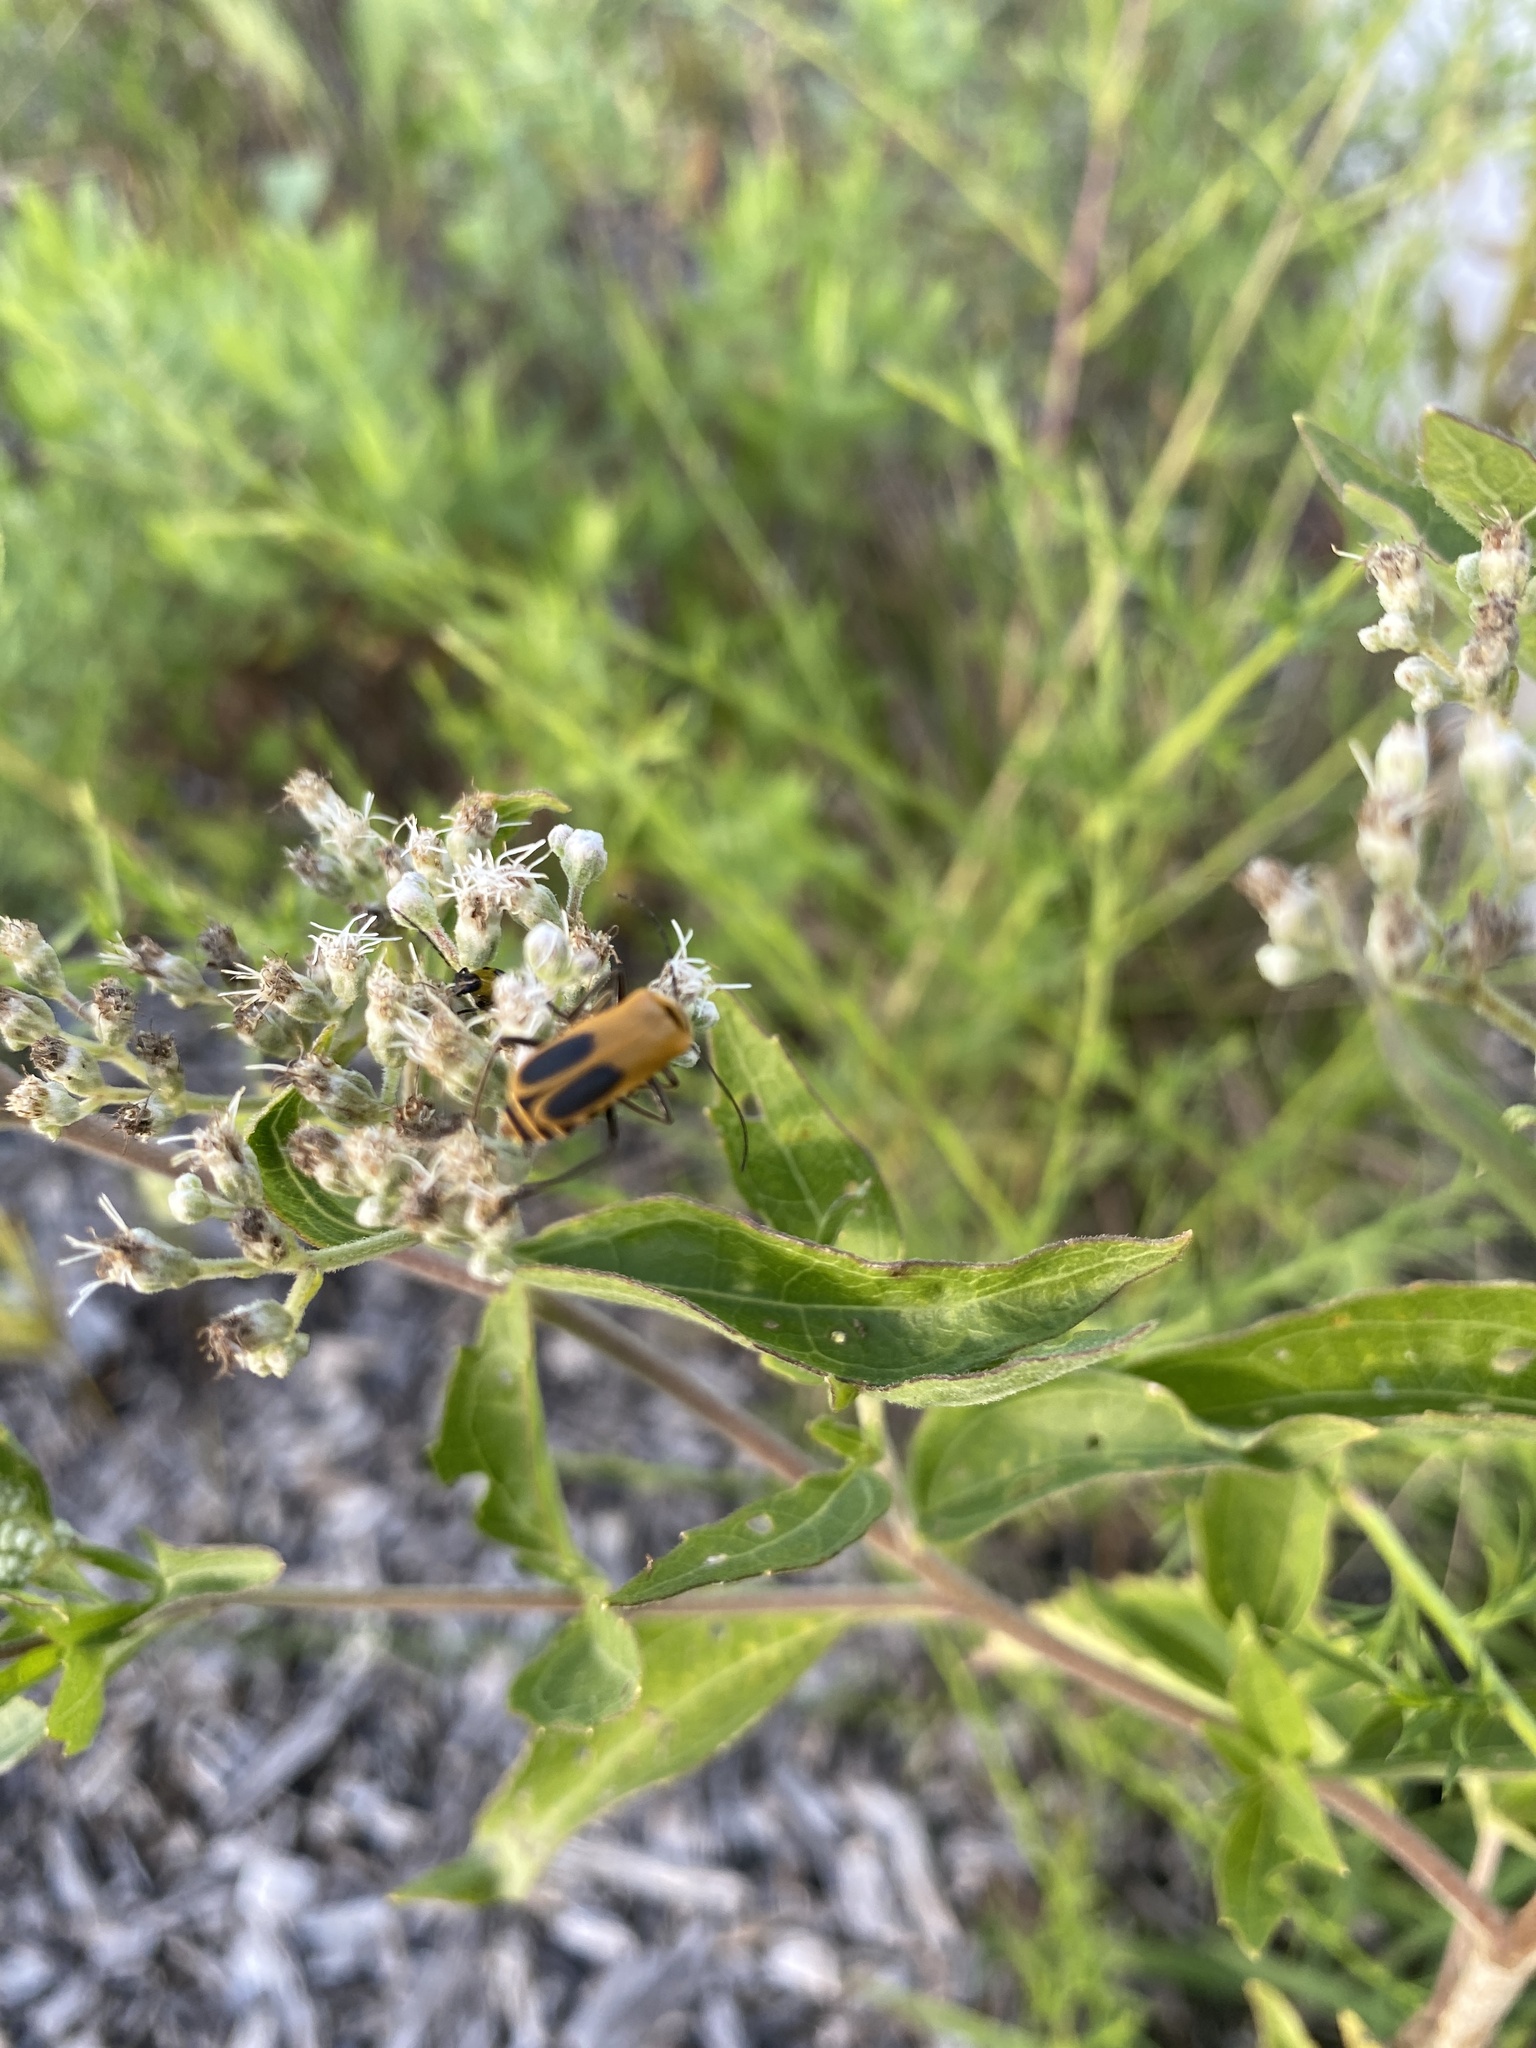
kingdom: Animalia
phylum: Arthropoda
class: Insecta
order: Coleoptera
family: Cantharidae
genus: Chauliognathus
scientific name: Chauliognathus pensylvanicus
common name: Goldenrod soldier beetle
